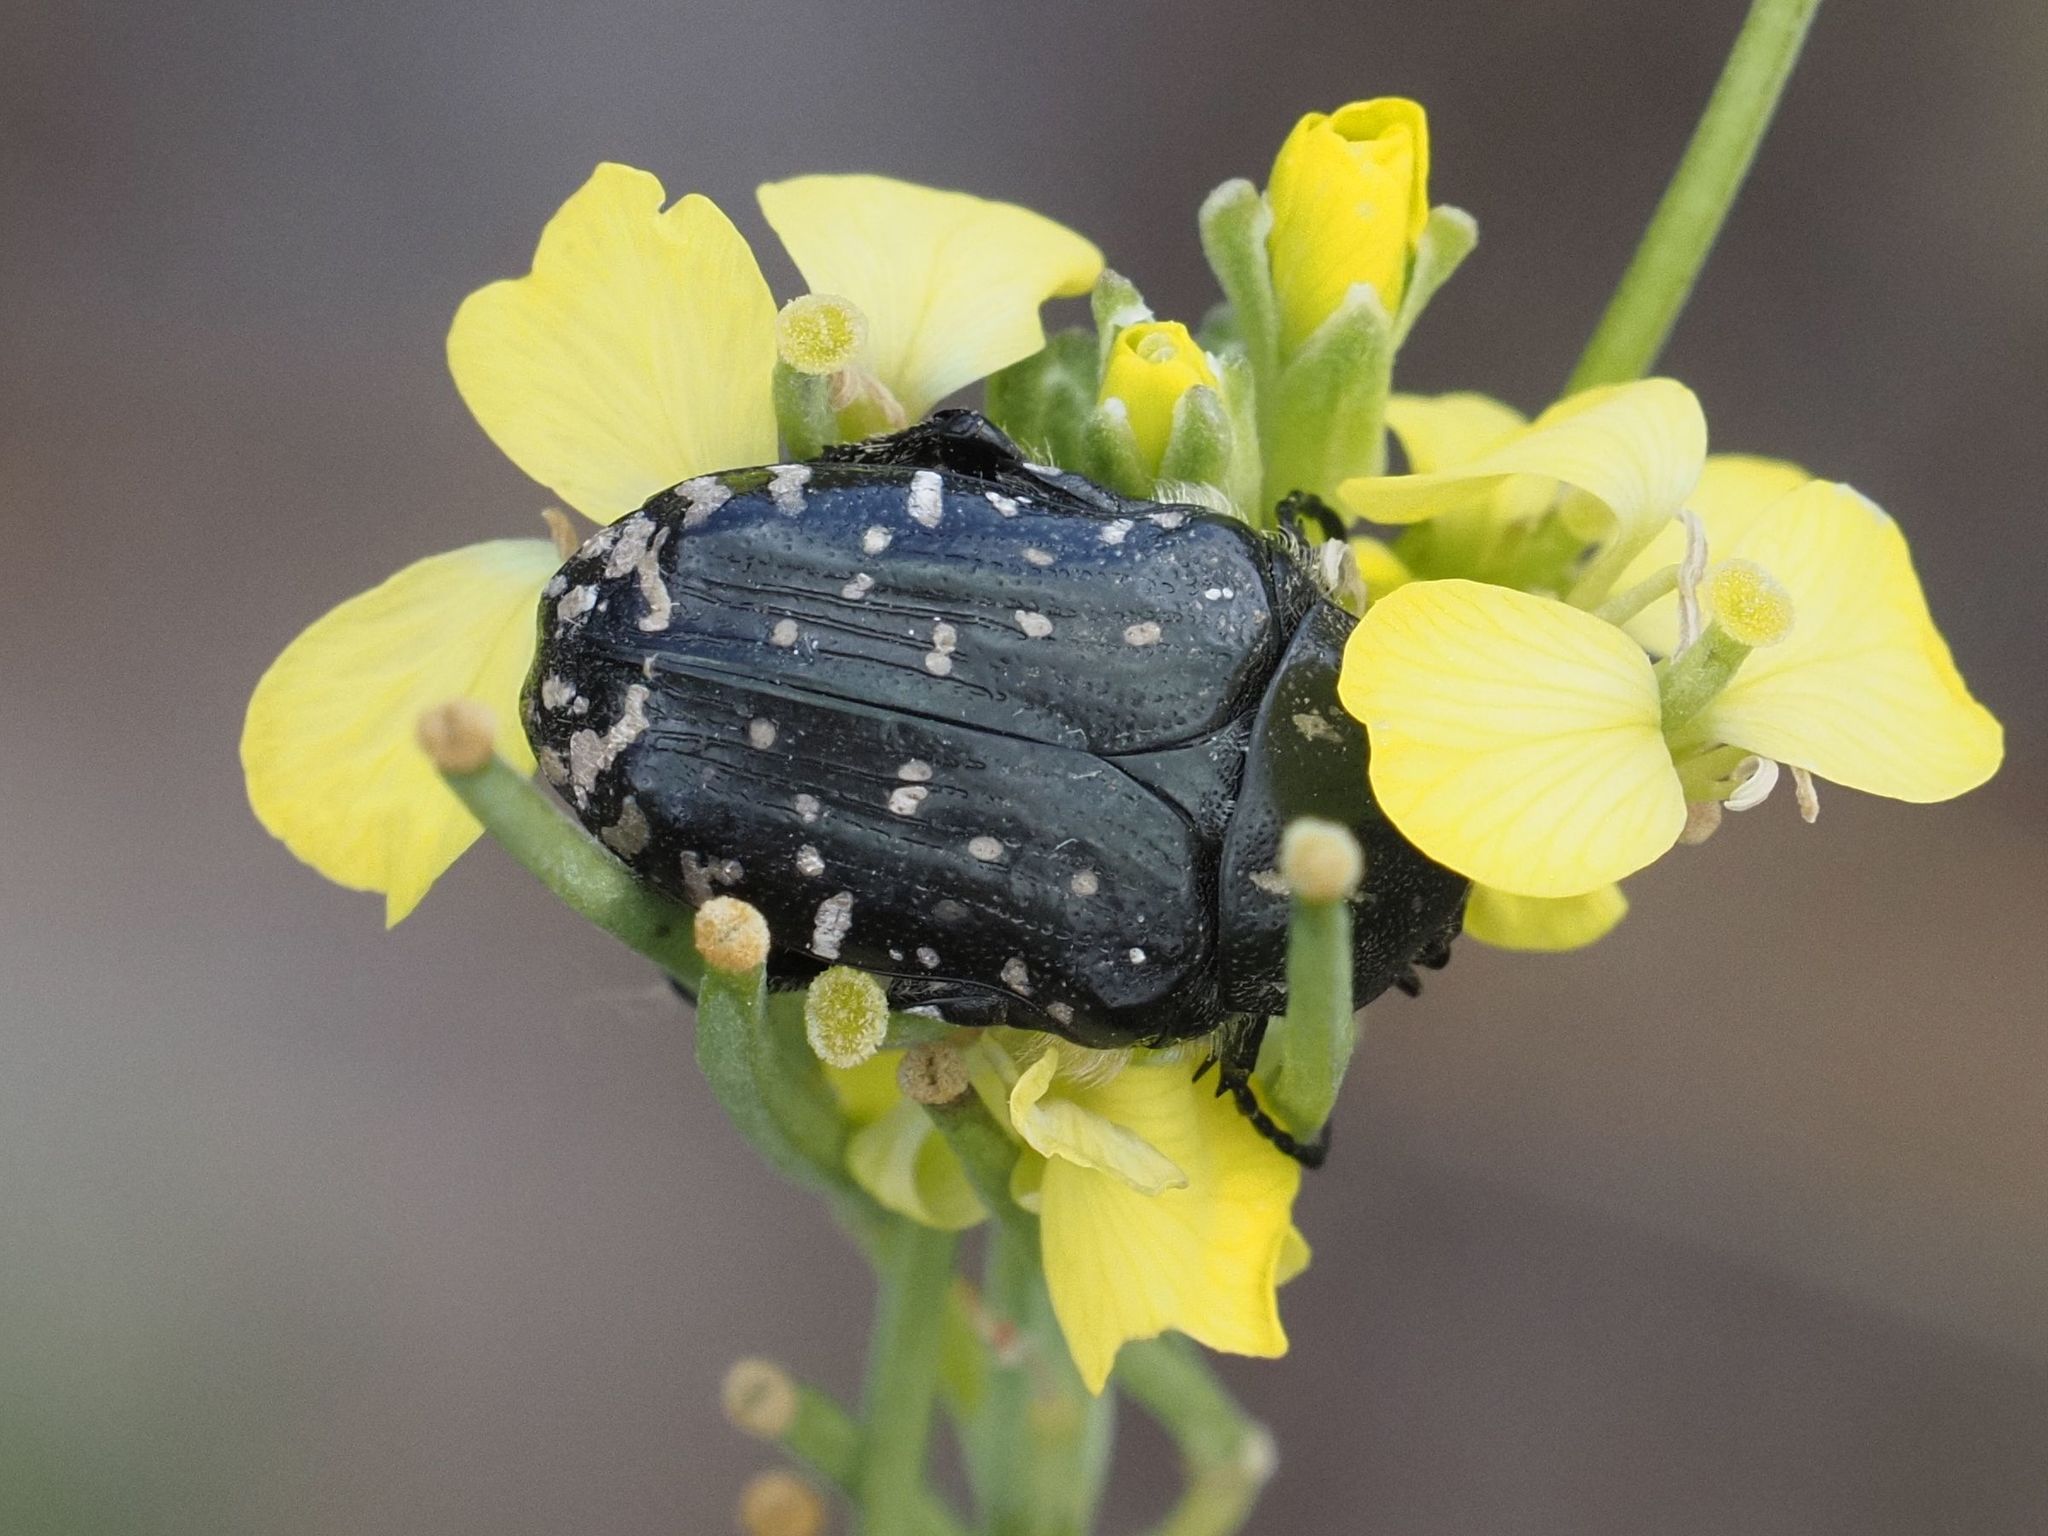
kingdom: Animalia
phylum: Arthropoda
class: Insecta
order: Coleoptera
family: Scarabaeidae
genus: Oxythyrea
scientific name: Oxythyrea funesta
